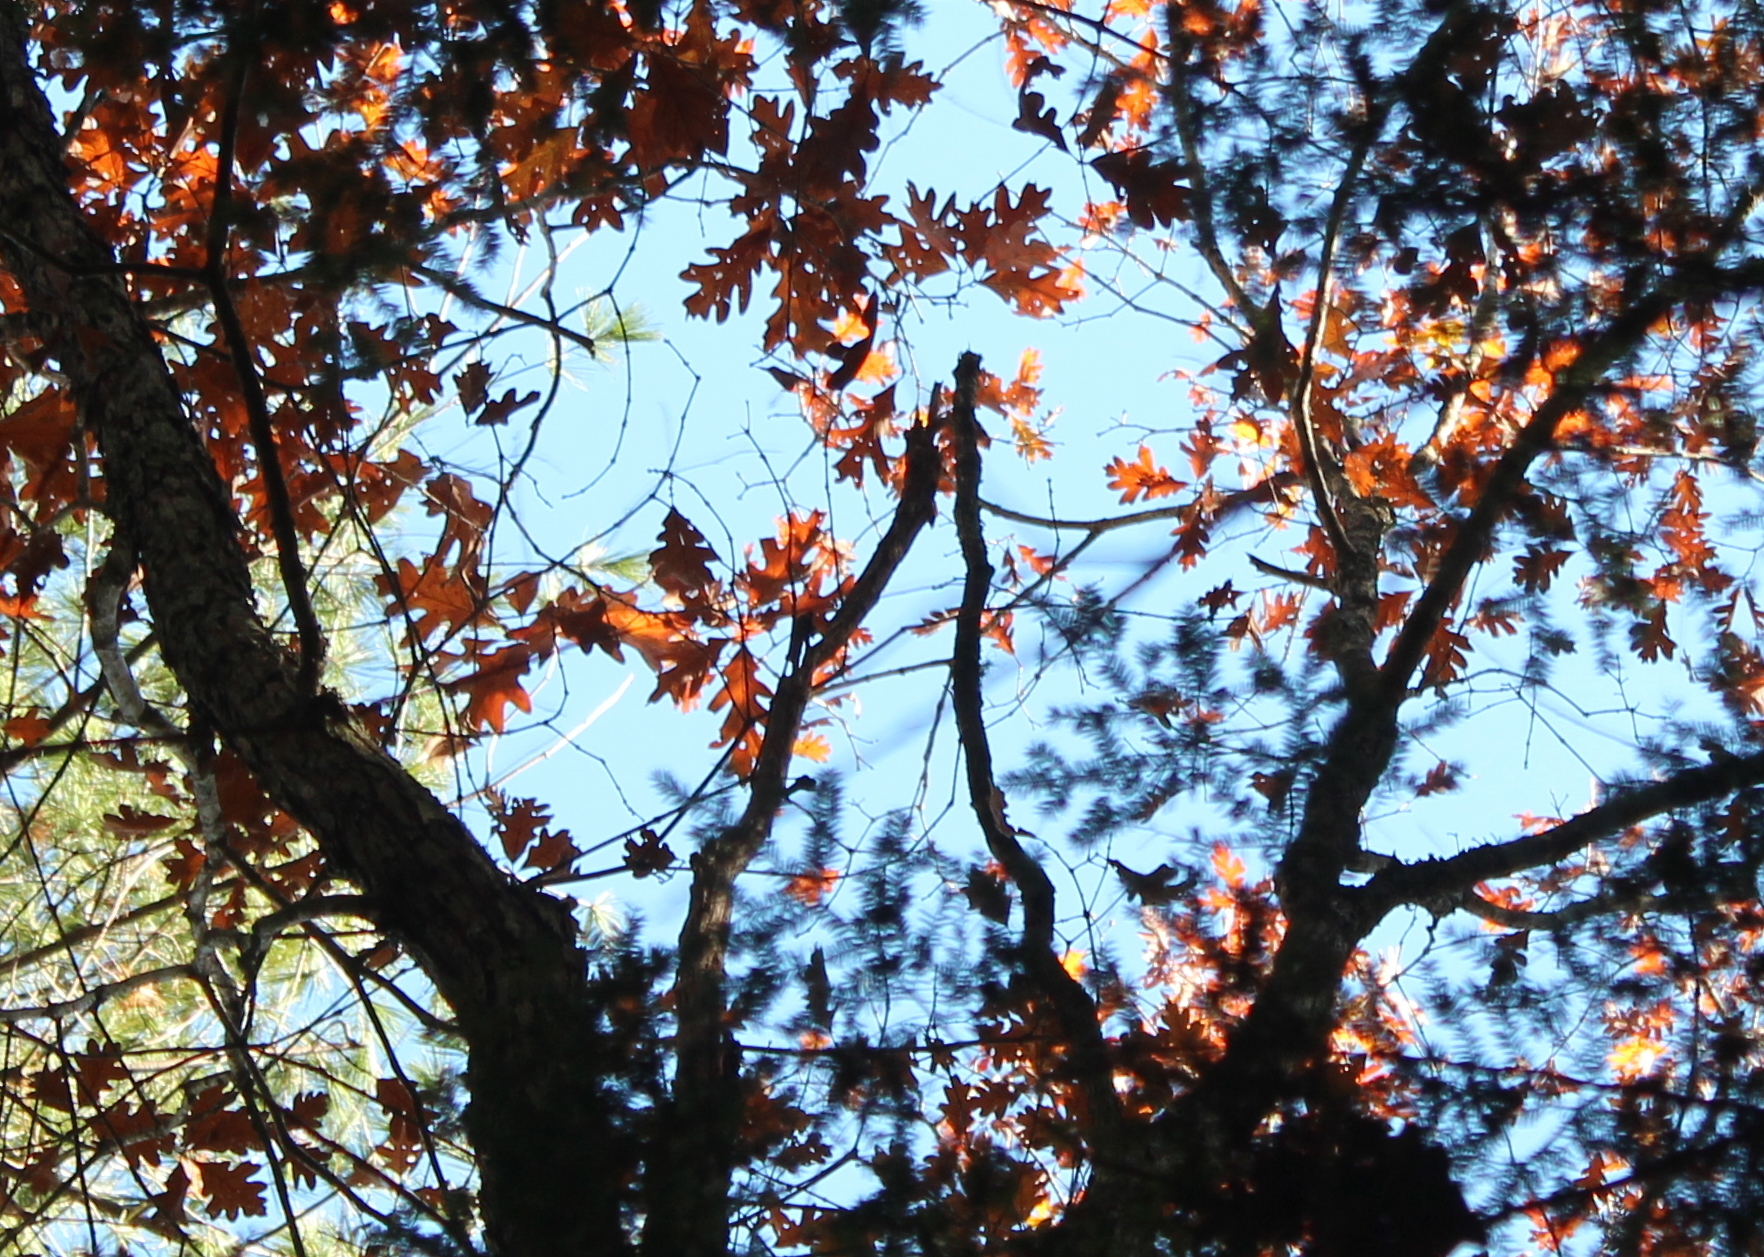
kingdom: Plantae
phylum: Tracheophyta
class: Magnoliopsida
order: Fagales
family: Fagaceae
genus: Quercus
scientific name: Quercus alba
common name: White oak
